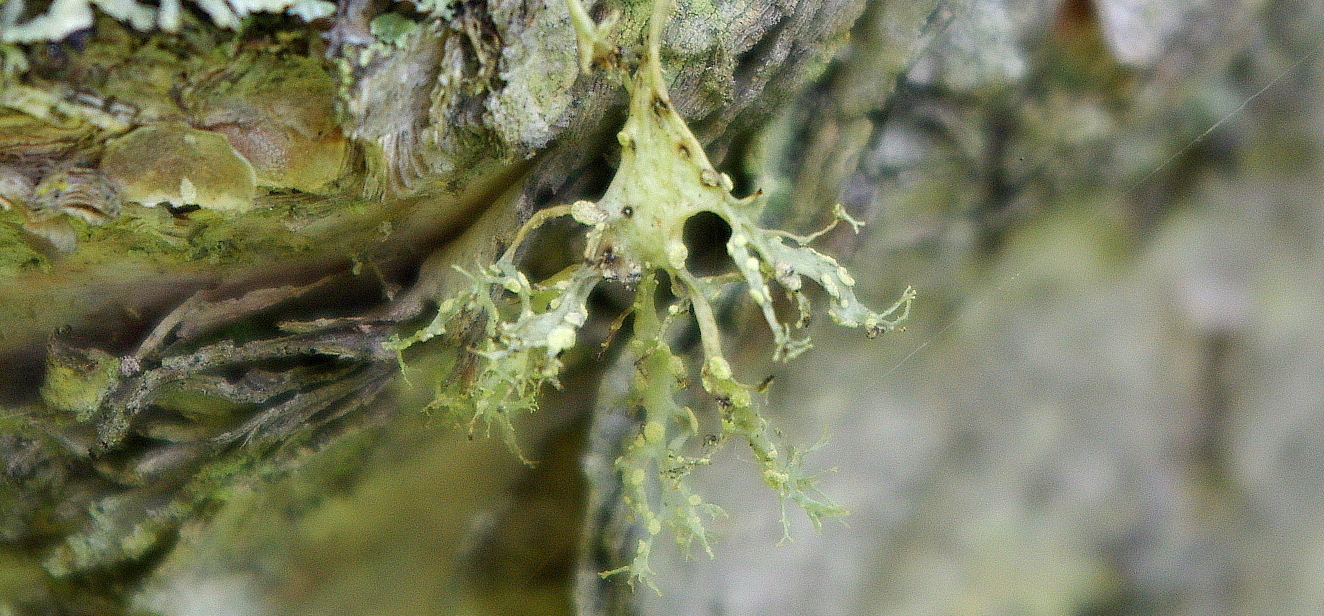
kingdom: Fungi
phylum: Ascomycota
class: Lecanoromycetes
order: Lecanorales
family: Ramalinaceae
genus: Ramalina
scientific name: Ramalina farinacea
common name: Farinose cartilage lichen
